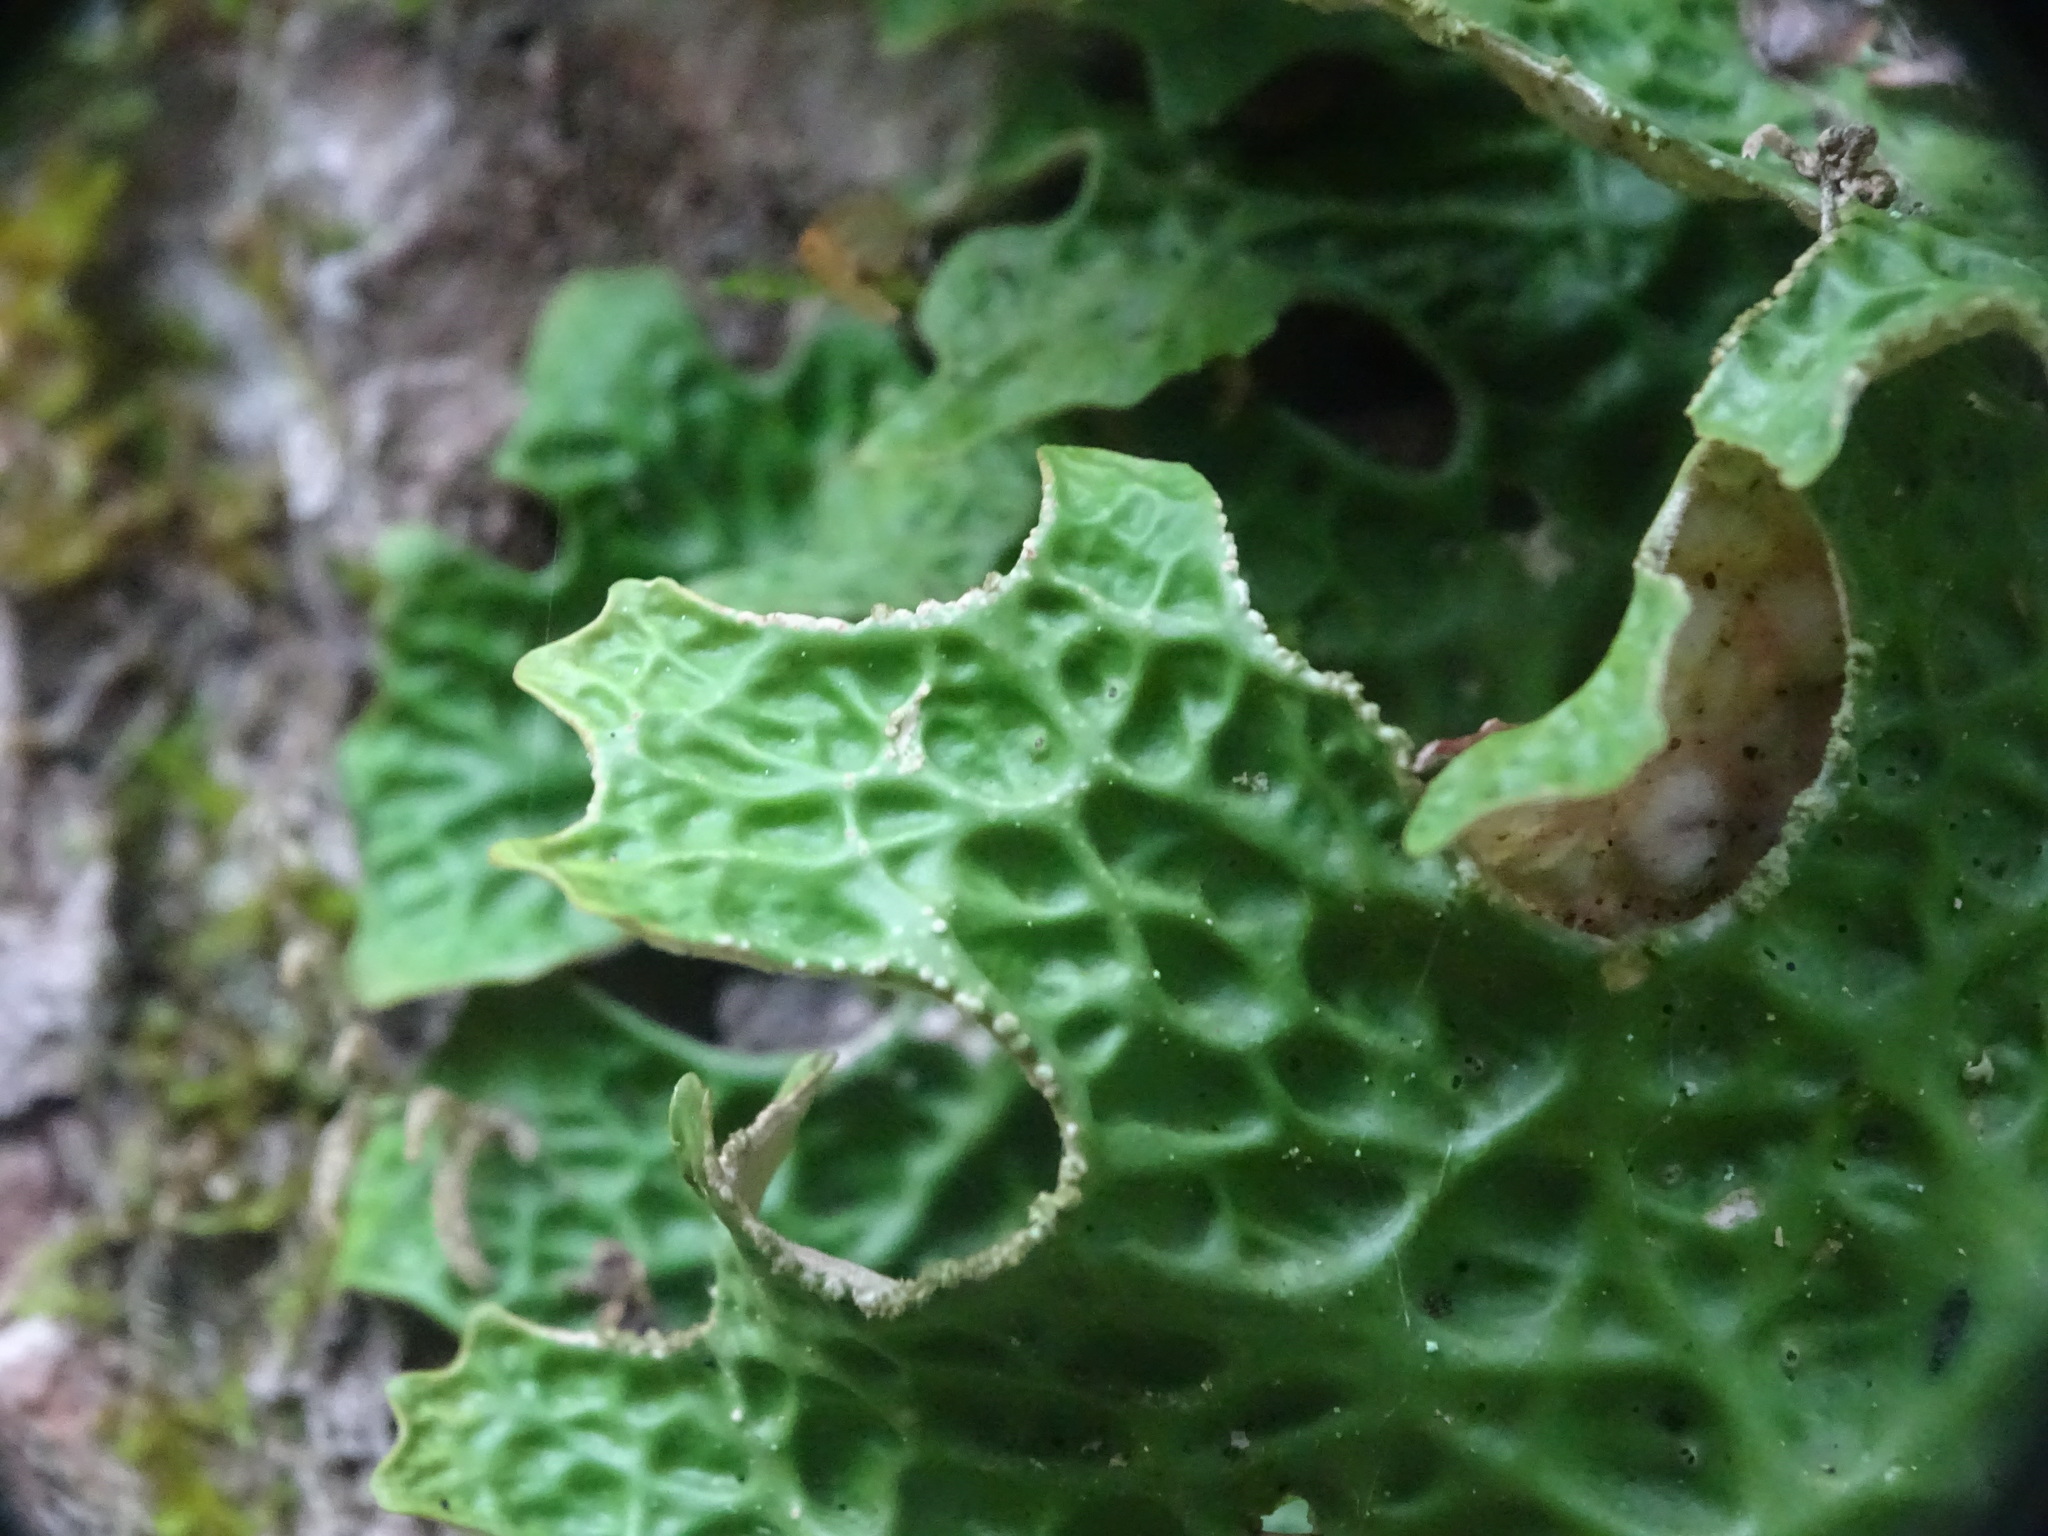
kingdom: Fungi
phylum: Ascomycota
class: Lecanoromycetes
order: Peltigerales
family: Lobariaceae
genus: Lobaria
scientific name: Lobaria pulmonaria
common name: Lungwort
